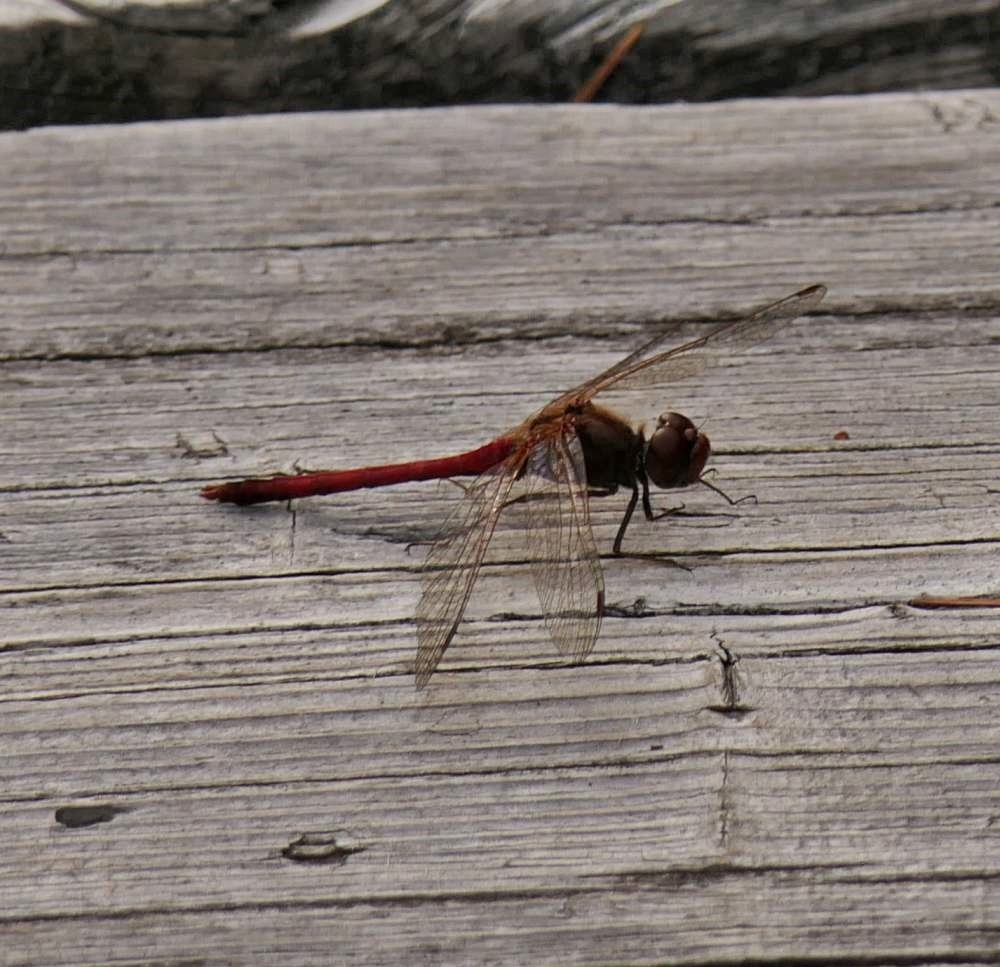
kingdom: Animalia
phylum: Arthropoda
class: Insecta
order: Odonata
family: Libellulidae
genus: Sympetrum
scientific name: Sympetrum vicinum
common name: Autumn meadowhawk
